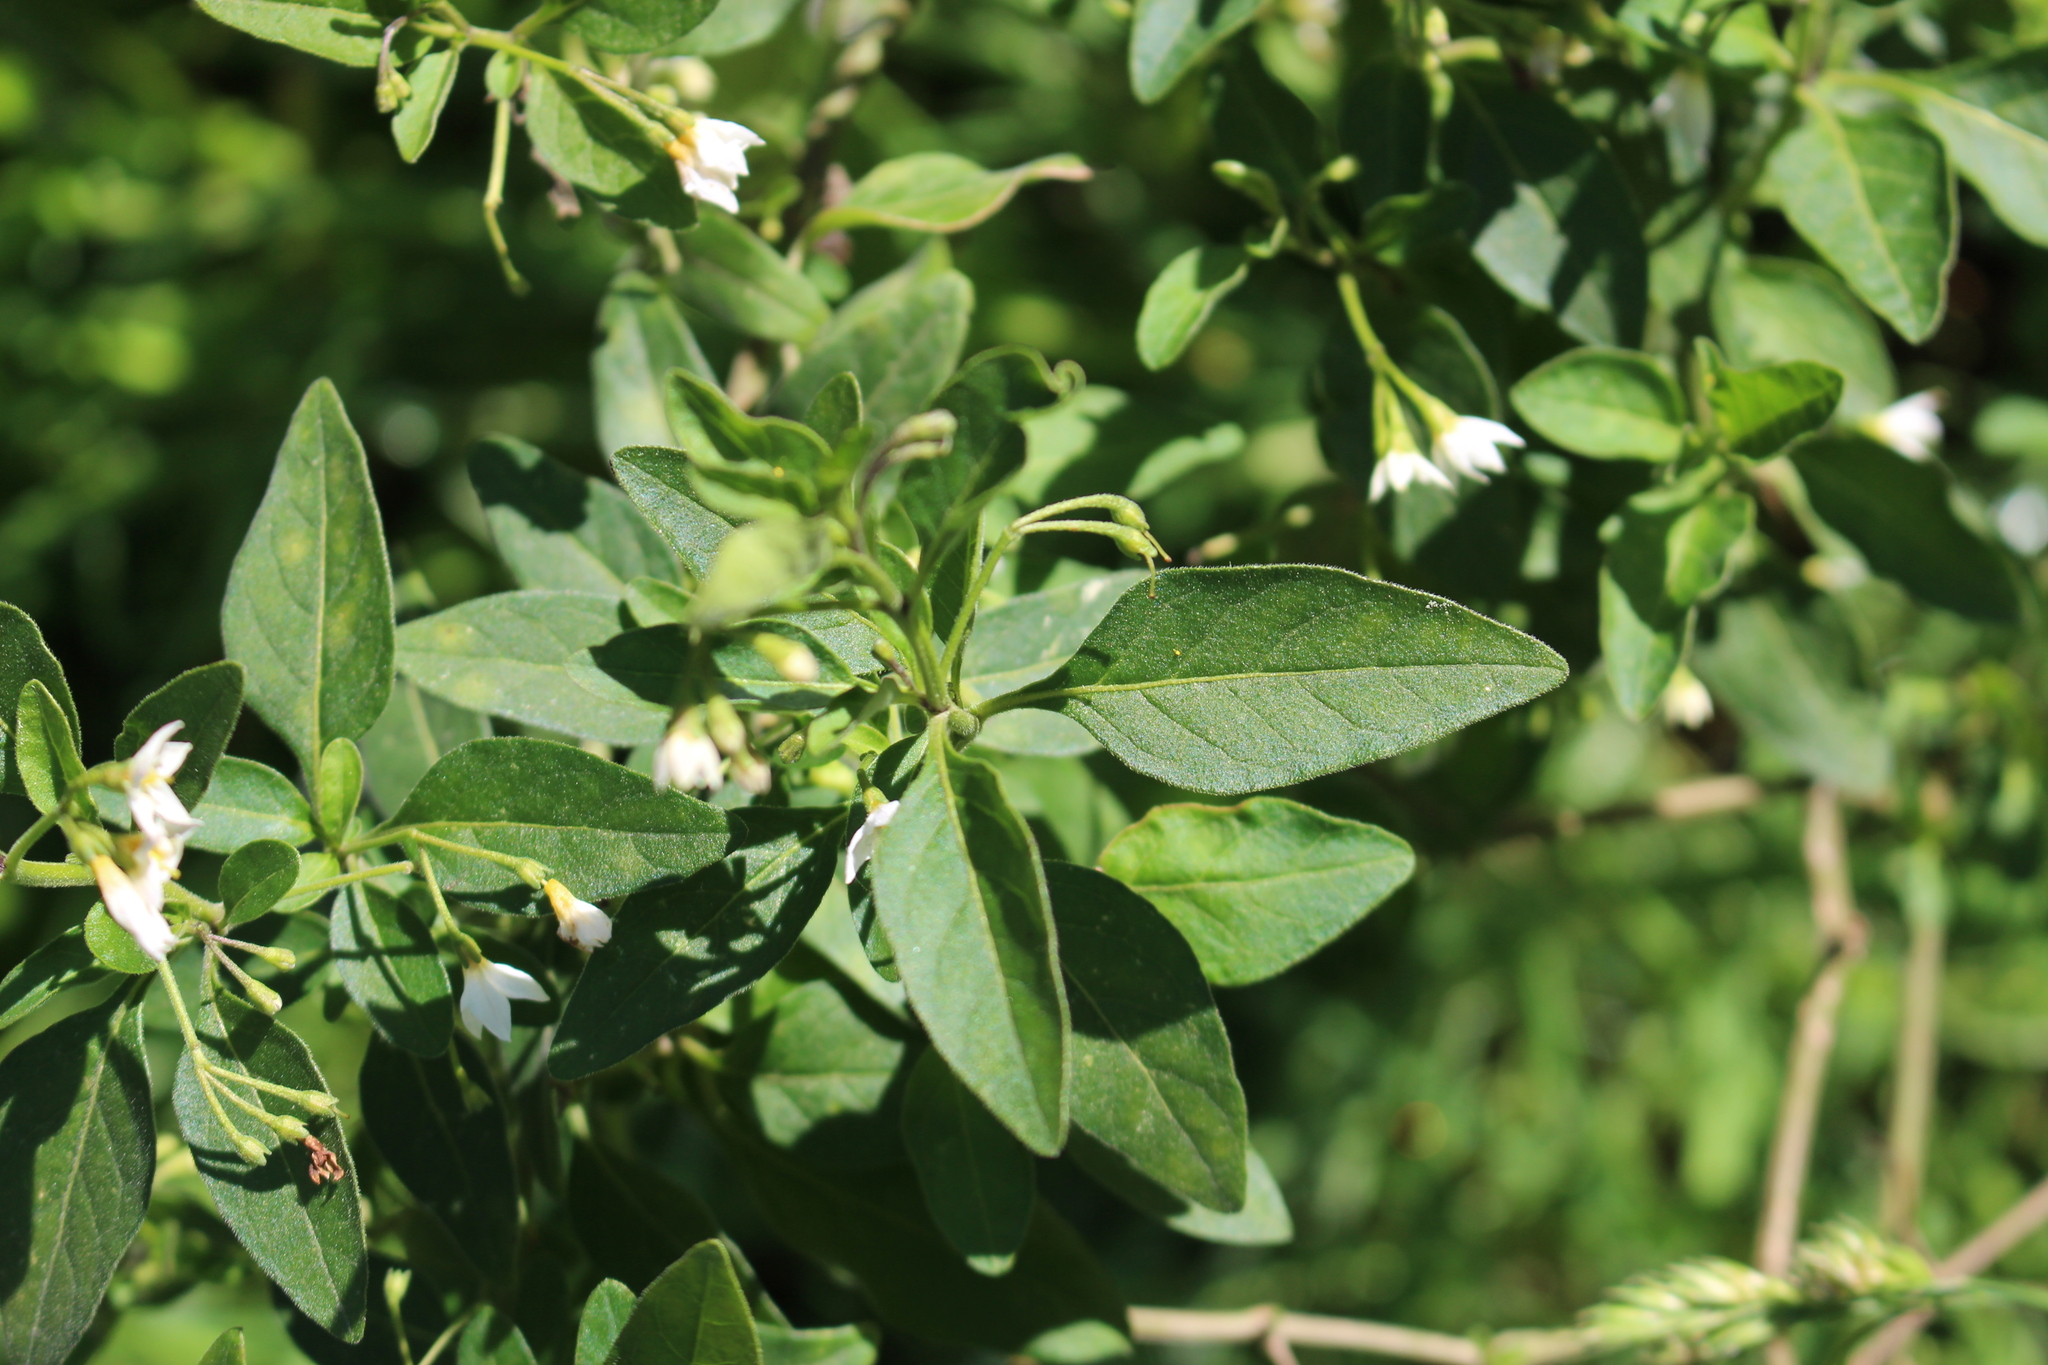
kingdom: Plantae
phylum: Tracheophyta
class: Magnoliopsida
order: Solanales
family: Solanaceae
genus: Solanum
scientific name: Solanum chenopodioides
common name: Tall nightshade
